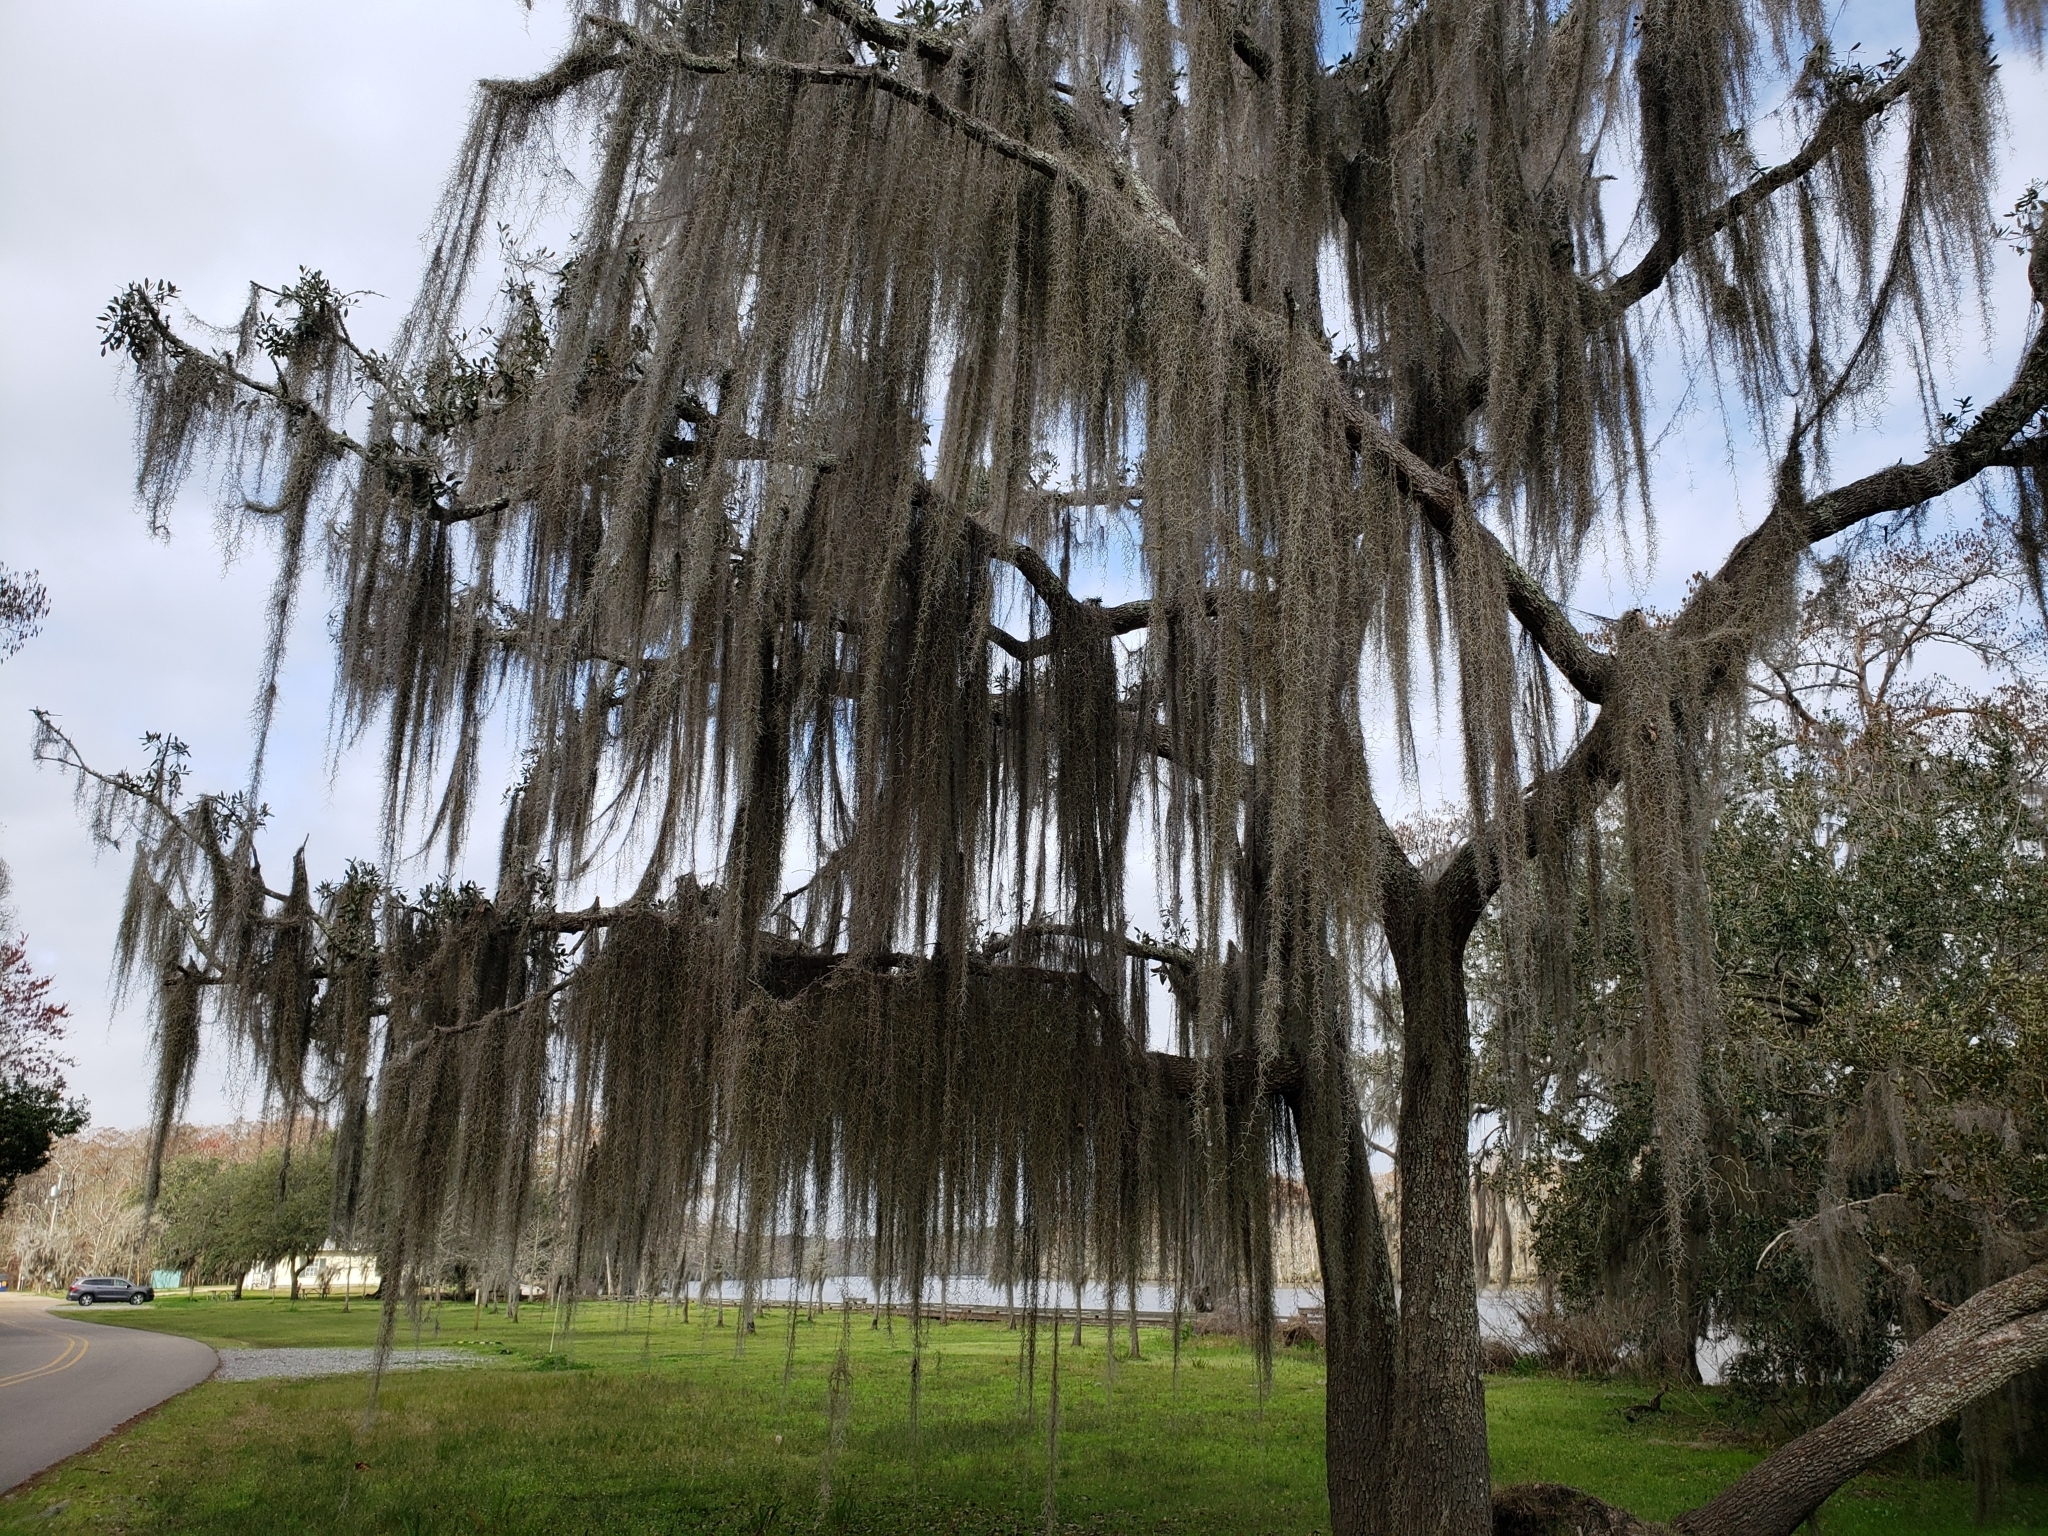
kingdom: Plantae
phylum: Tracheophyta
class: Liliopsida
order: Poales
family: Bromeliaceae
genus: Tillandsia
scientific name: Tillandsia usneoides
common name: Spanish moss
